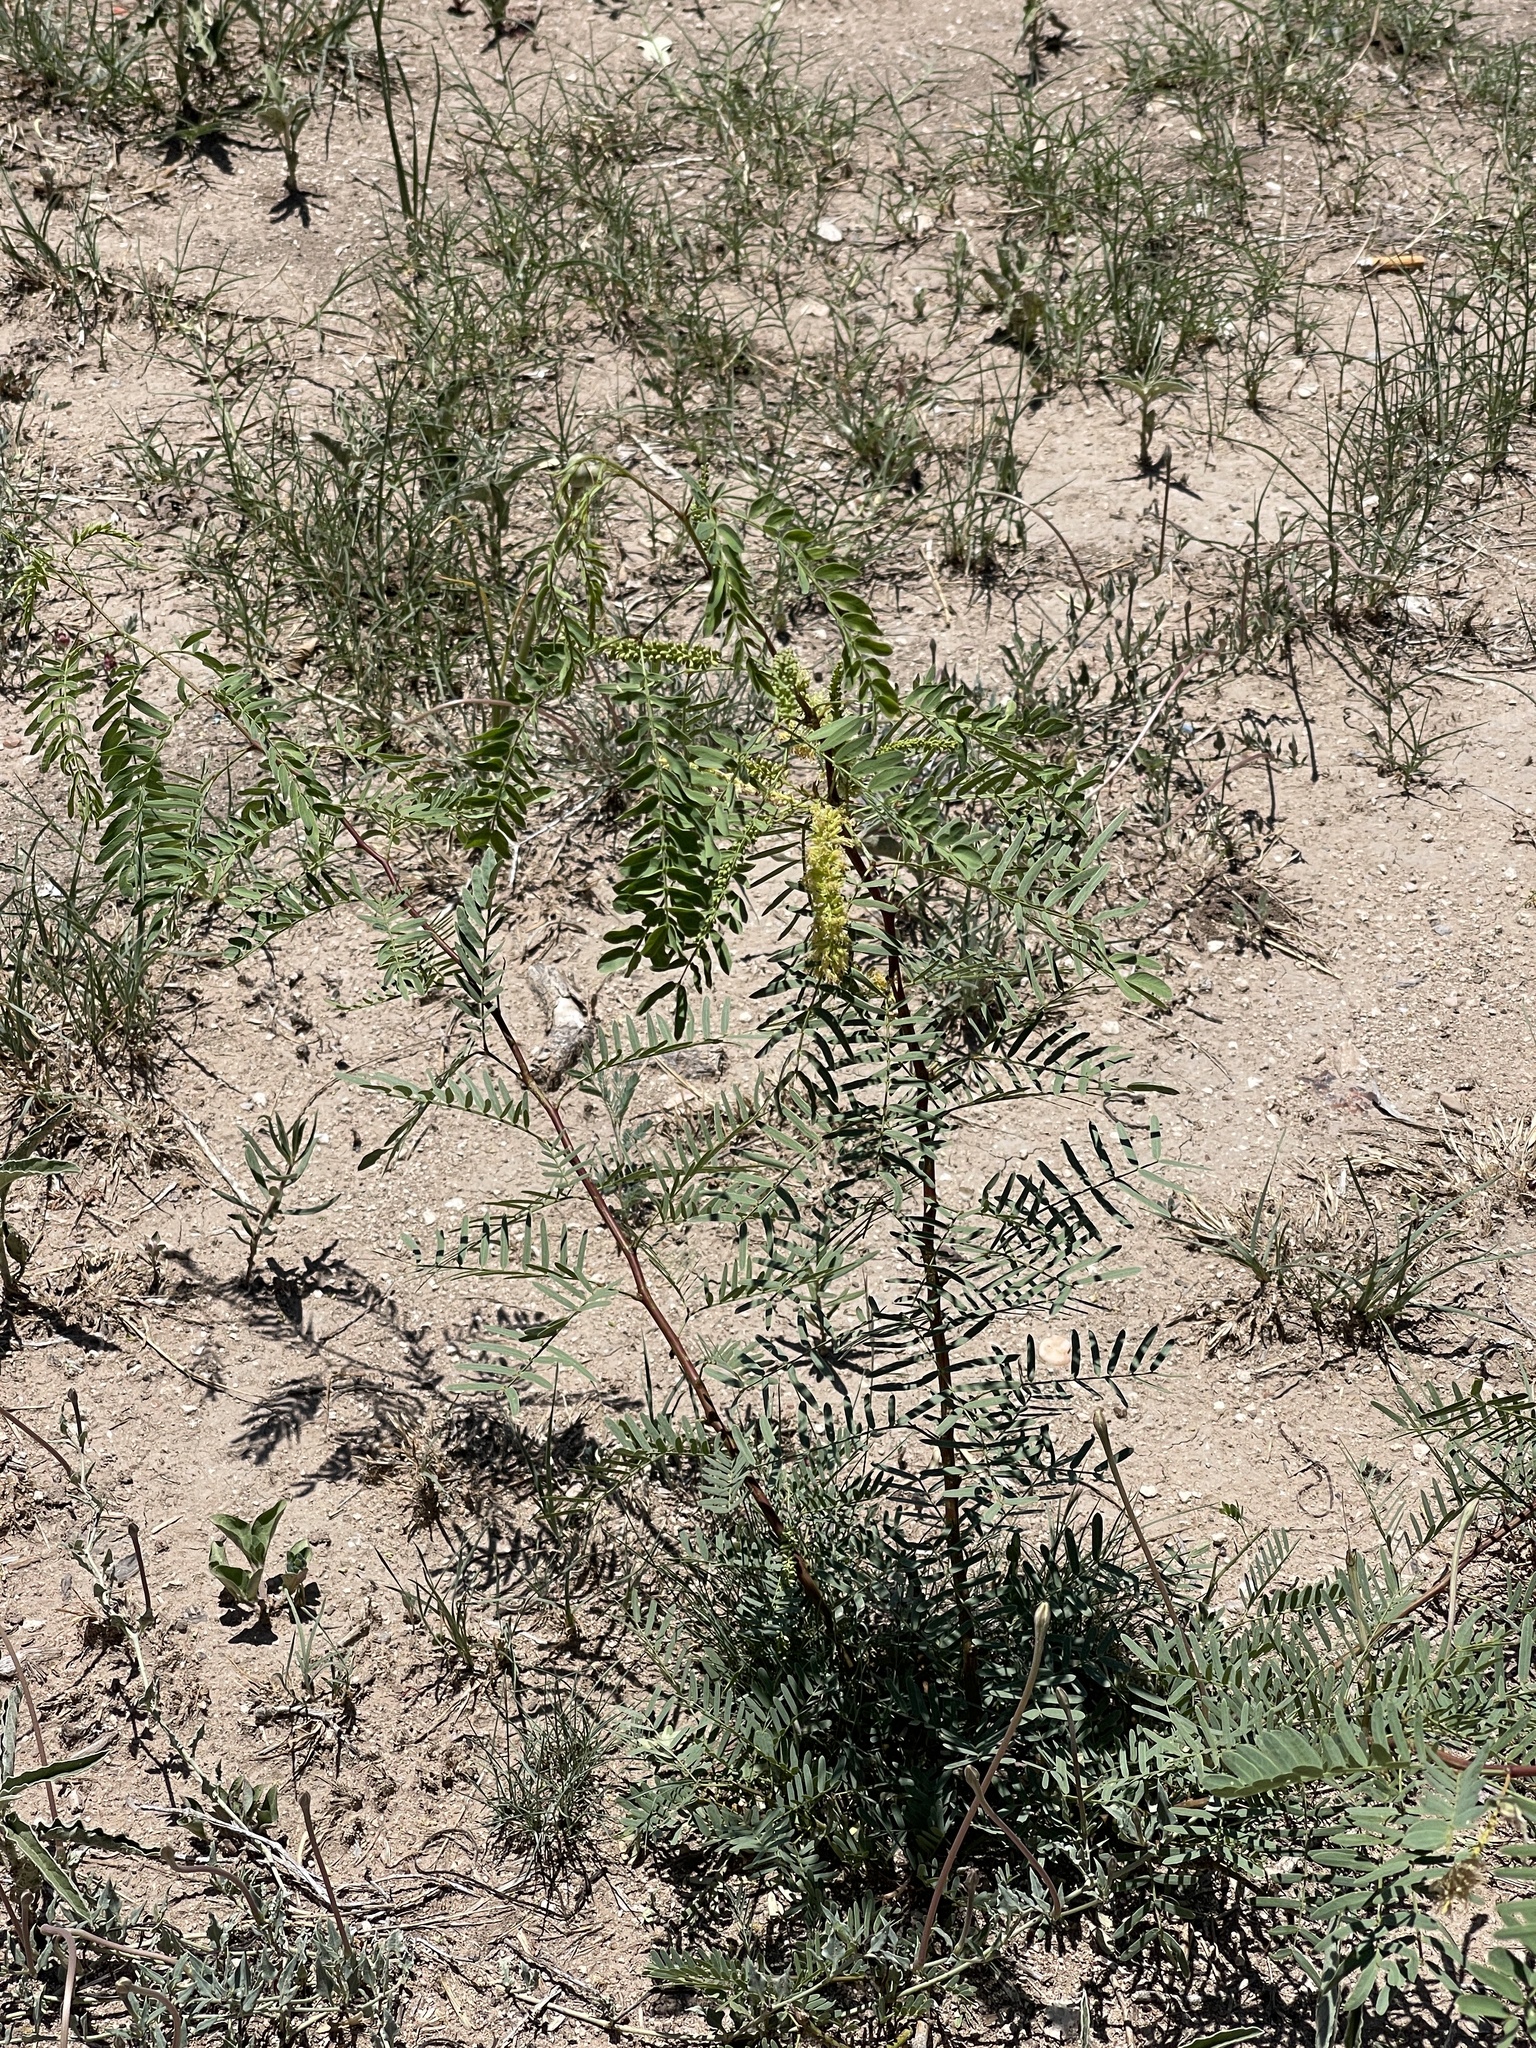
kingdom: Plantae
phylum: Tracheophyta
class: Magnoliopsida
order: Fabales
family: Fabaceae
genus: Prosopis
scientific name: Prosopis glandulosa
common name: Honey mesquite
